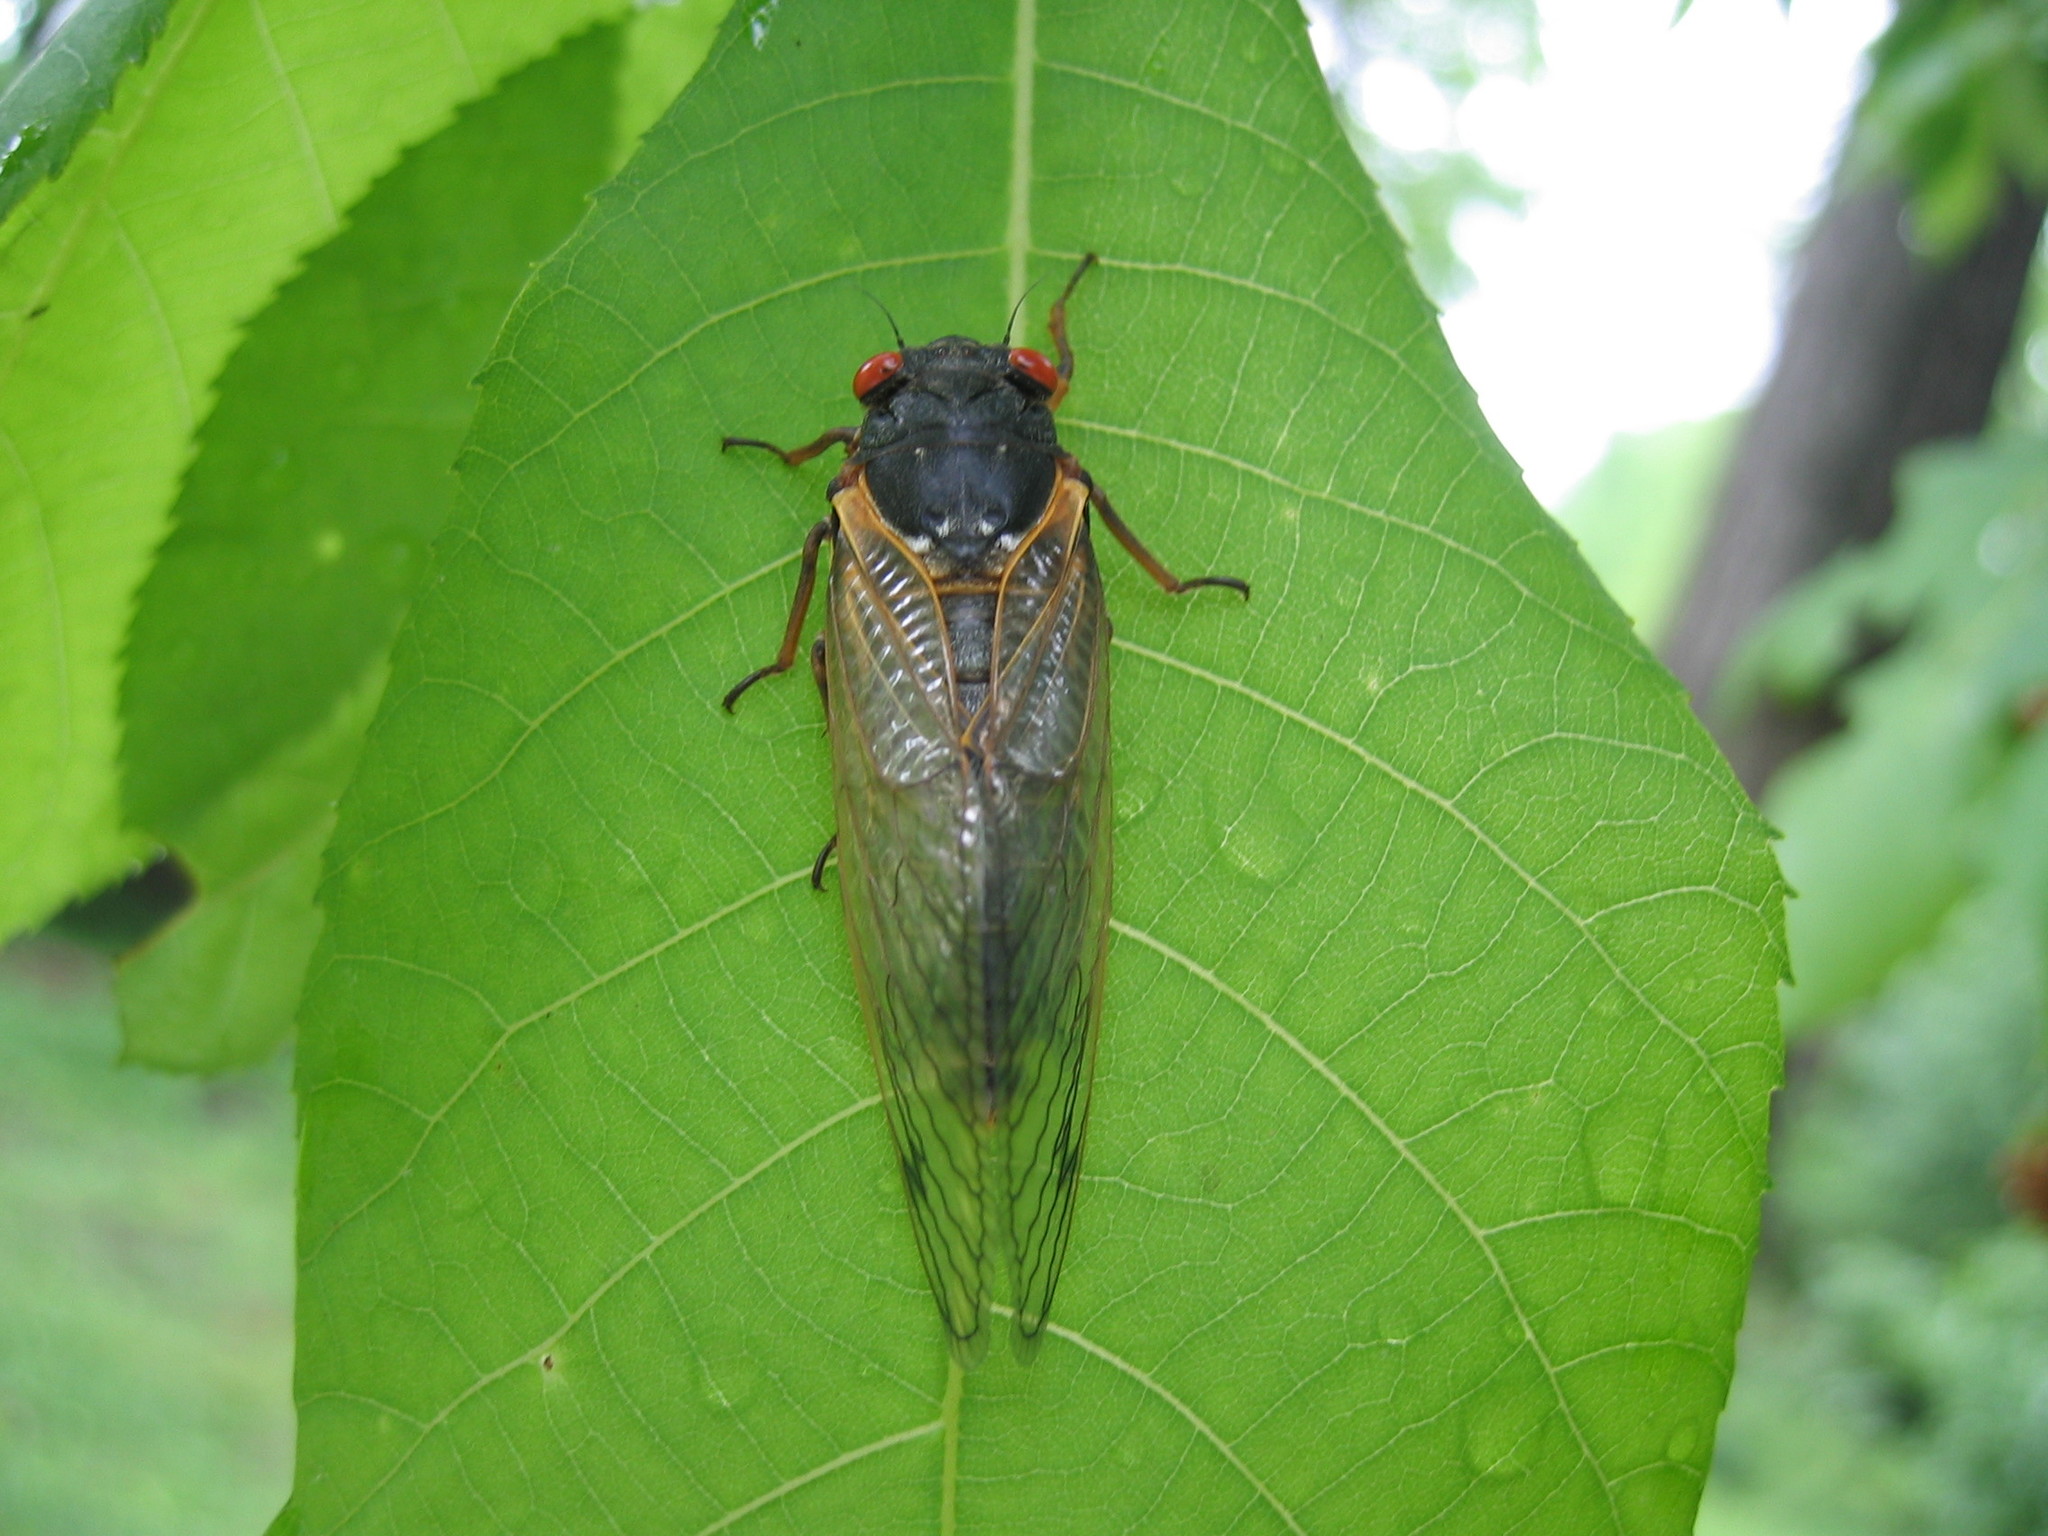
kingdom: Animalia
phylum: Arthropoda
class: Insecta
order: Hemiptera
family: Cicadidae
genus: Magicicada
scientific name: Magicicada
